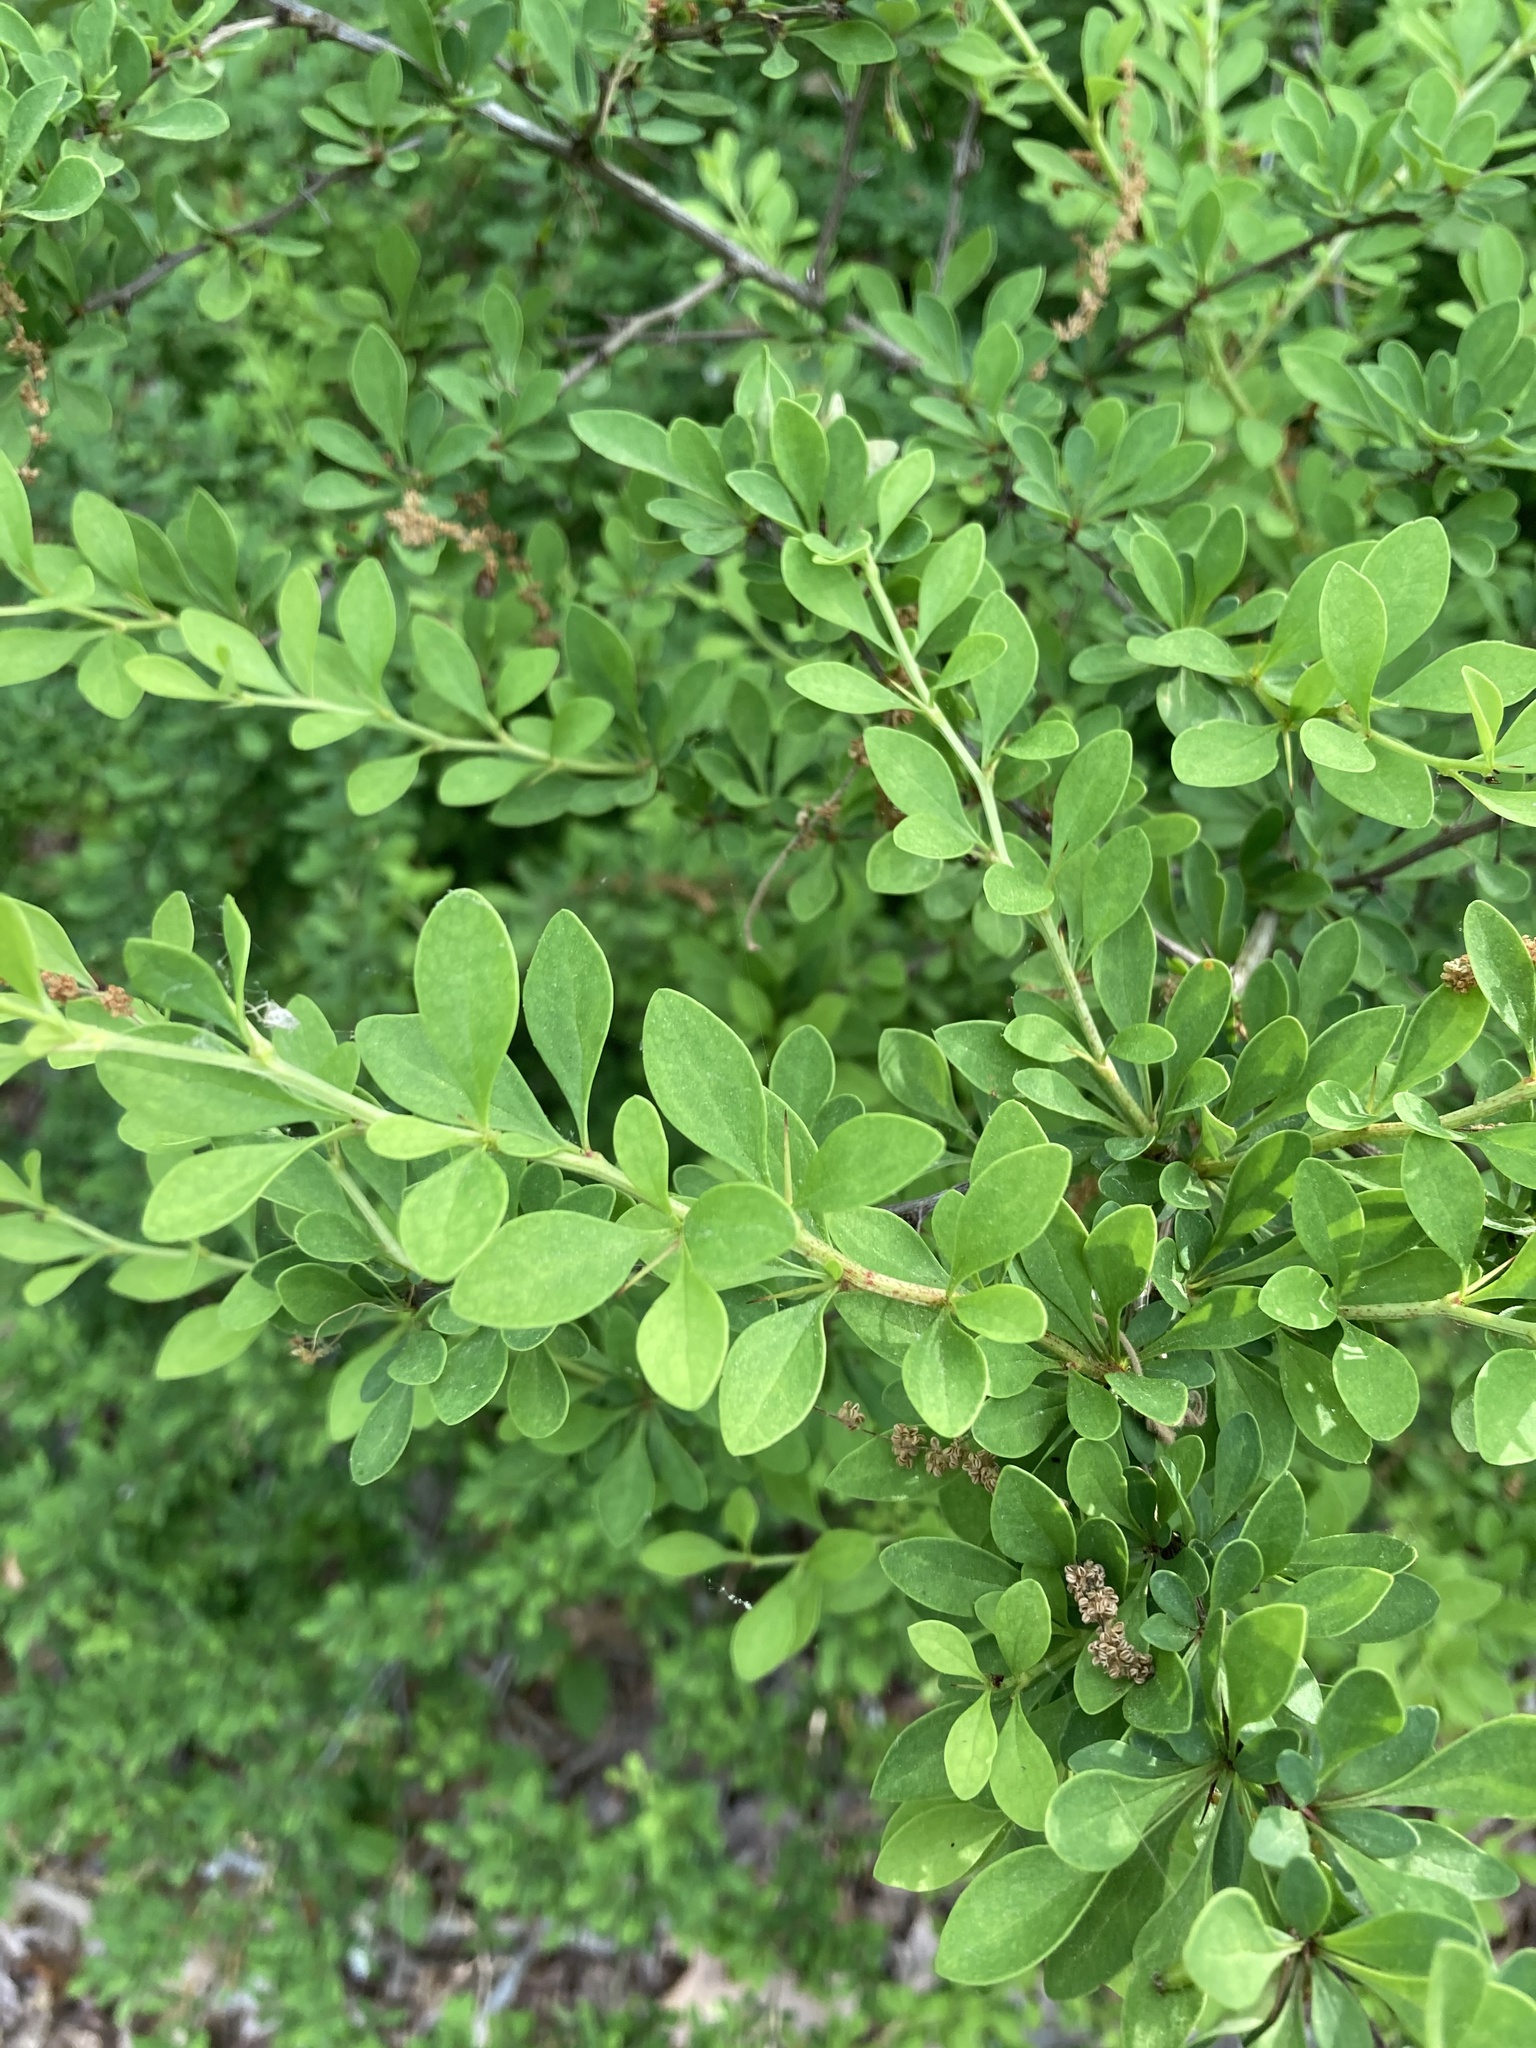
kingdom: Plantae
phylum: Tracheophyta
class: Magnoliopsida
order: Ranunculales
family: Berberidaceae
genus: Berberis
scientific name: Berberis thunbergii
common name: Japanese barberry
